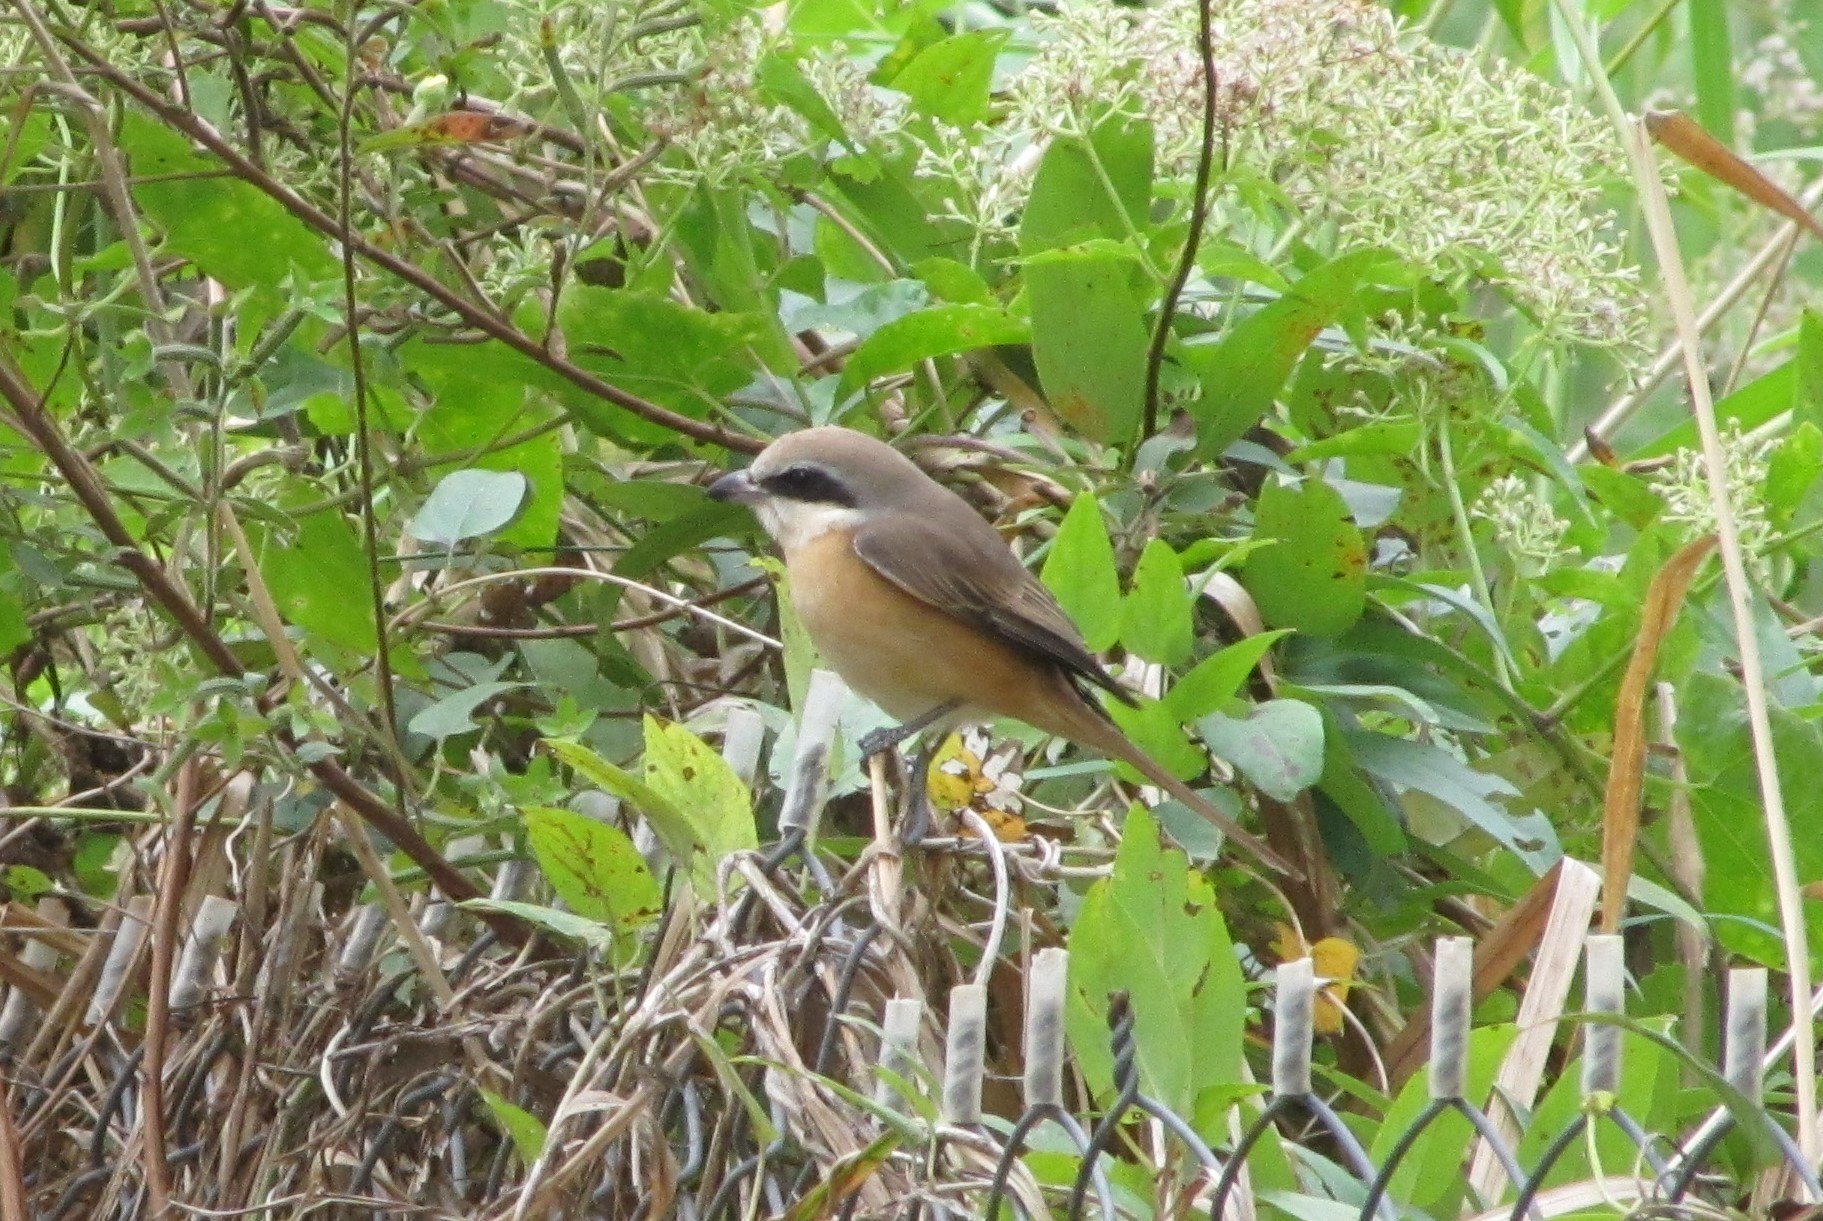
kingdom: Animalia
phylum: Chordata
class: Aves
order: Passeriformes
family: Laniidae
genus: Lanius
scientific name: Lanius cristatus
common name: Brown shrike
